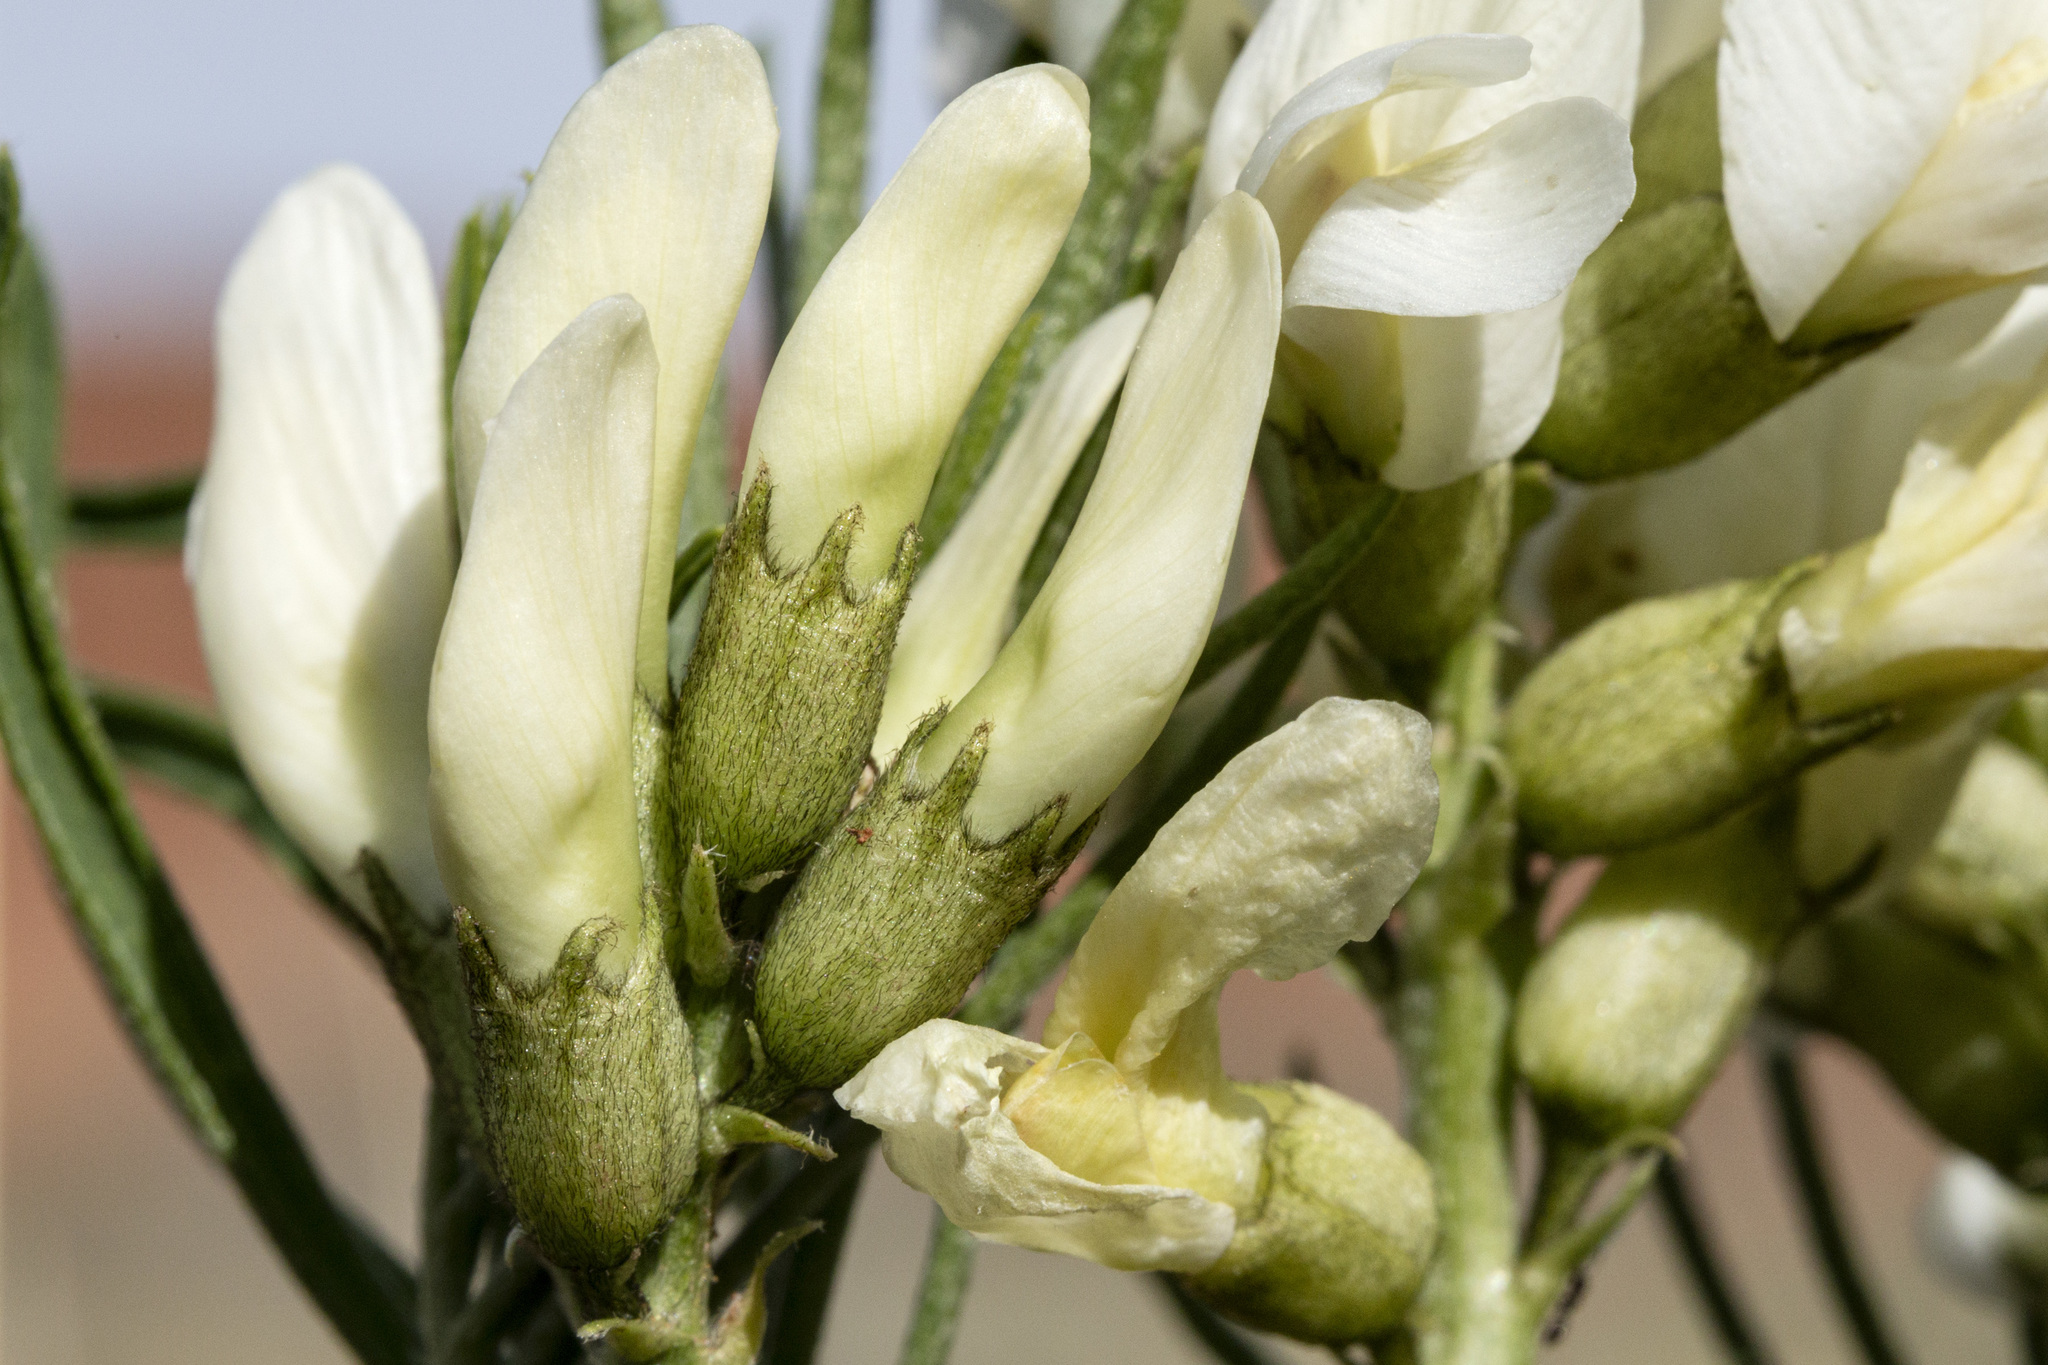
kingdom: Plantae
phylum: Tracheophyta
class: Magnoliopsida
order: Fabales
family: Fabaceae
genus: Astragalus
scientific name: Astragalus pectinatus
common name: Tine-leaf milk-vetch
